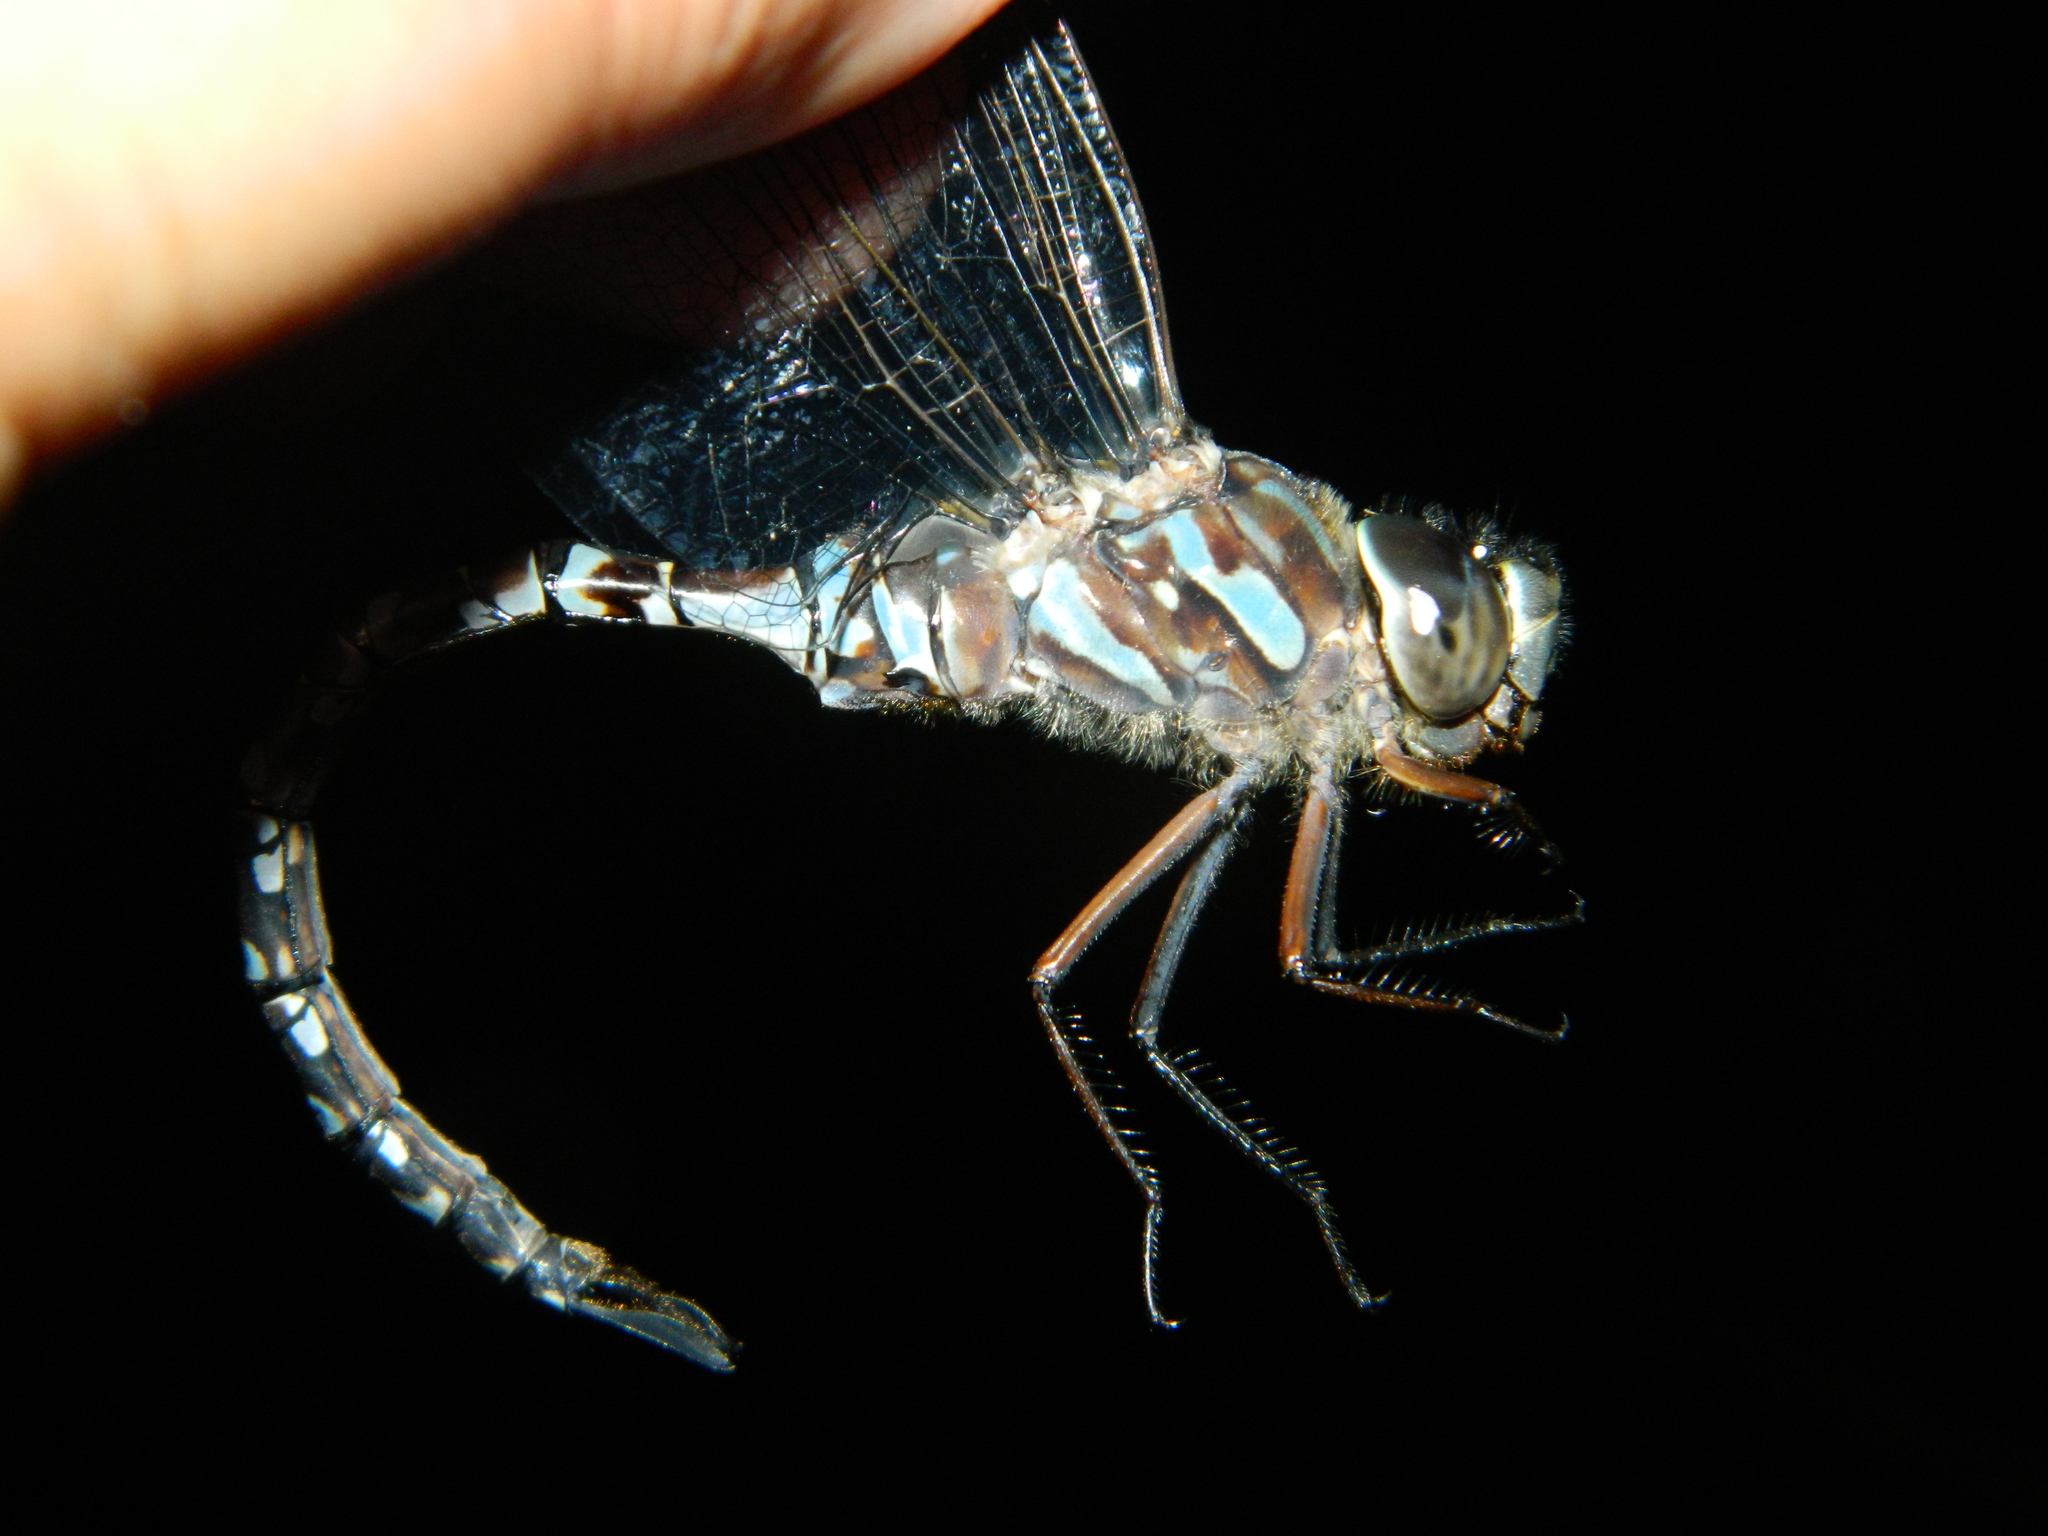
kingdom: Animalia
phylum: Arthropoda
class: Insecta
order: Odonata
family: Aeshnidae
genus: Aeshna
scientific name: Aeshna canadensis
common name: Canada darner
